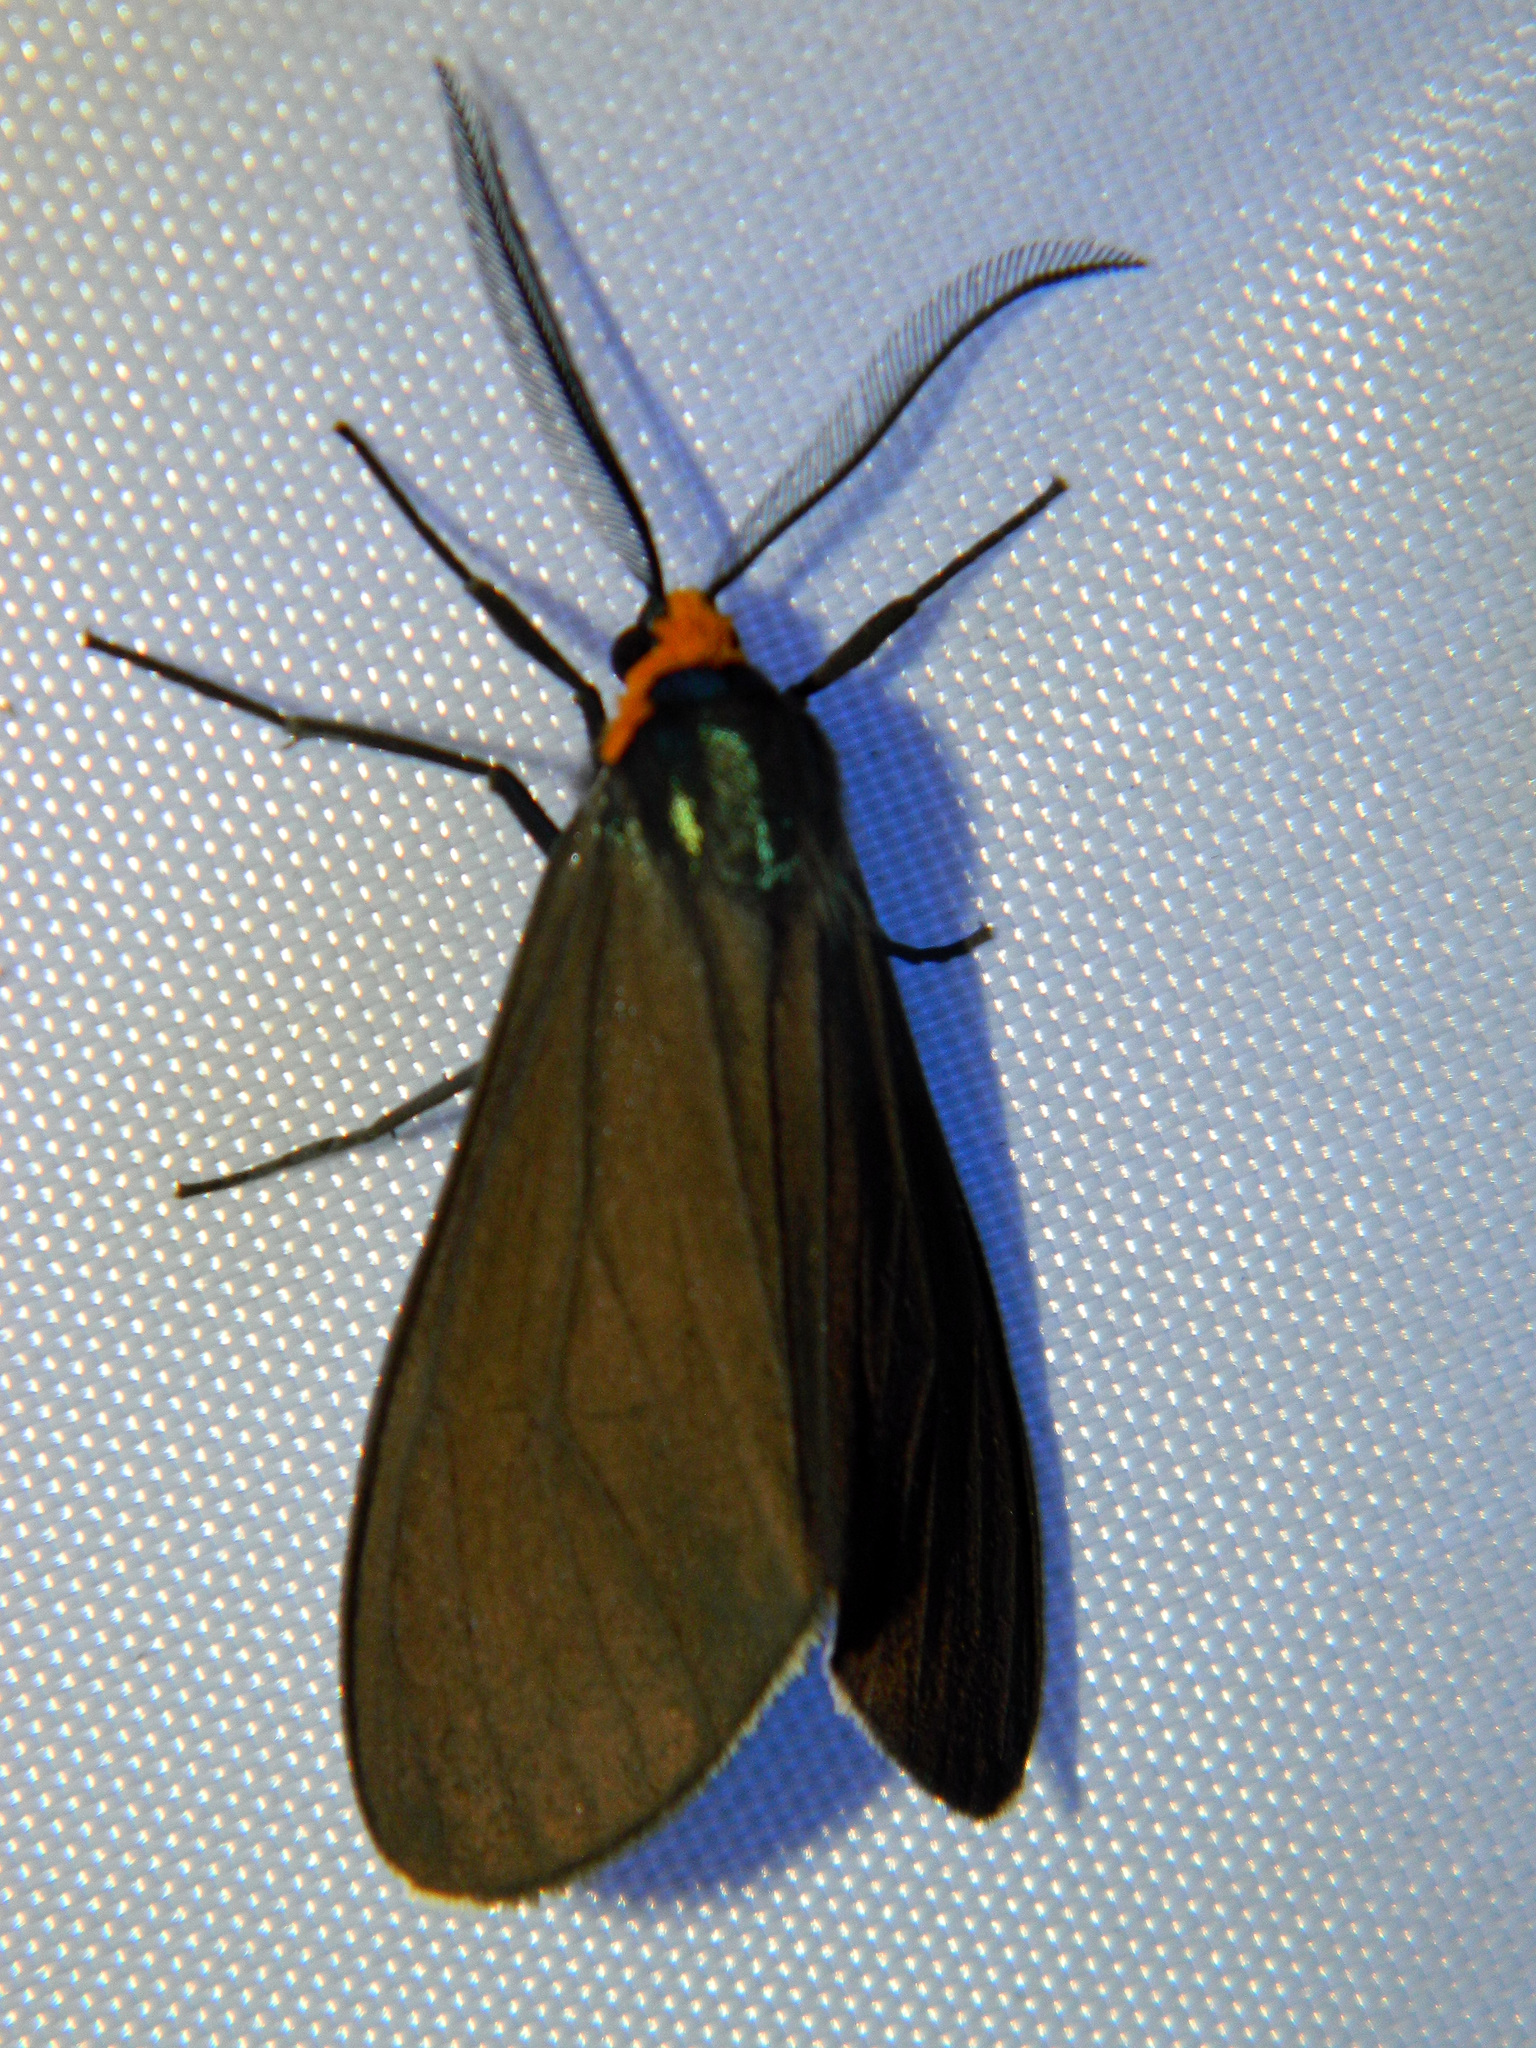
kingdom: Animalia
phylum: Arthropoda
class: Insecta
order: Lepidoptera
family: Erebidae
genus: Ctenucha
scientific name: Ctenucha virginica
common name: Virginia ctenucha moth
